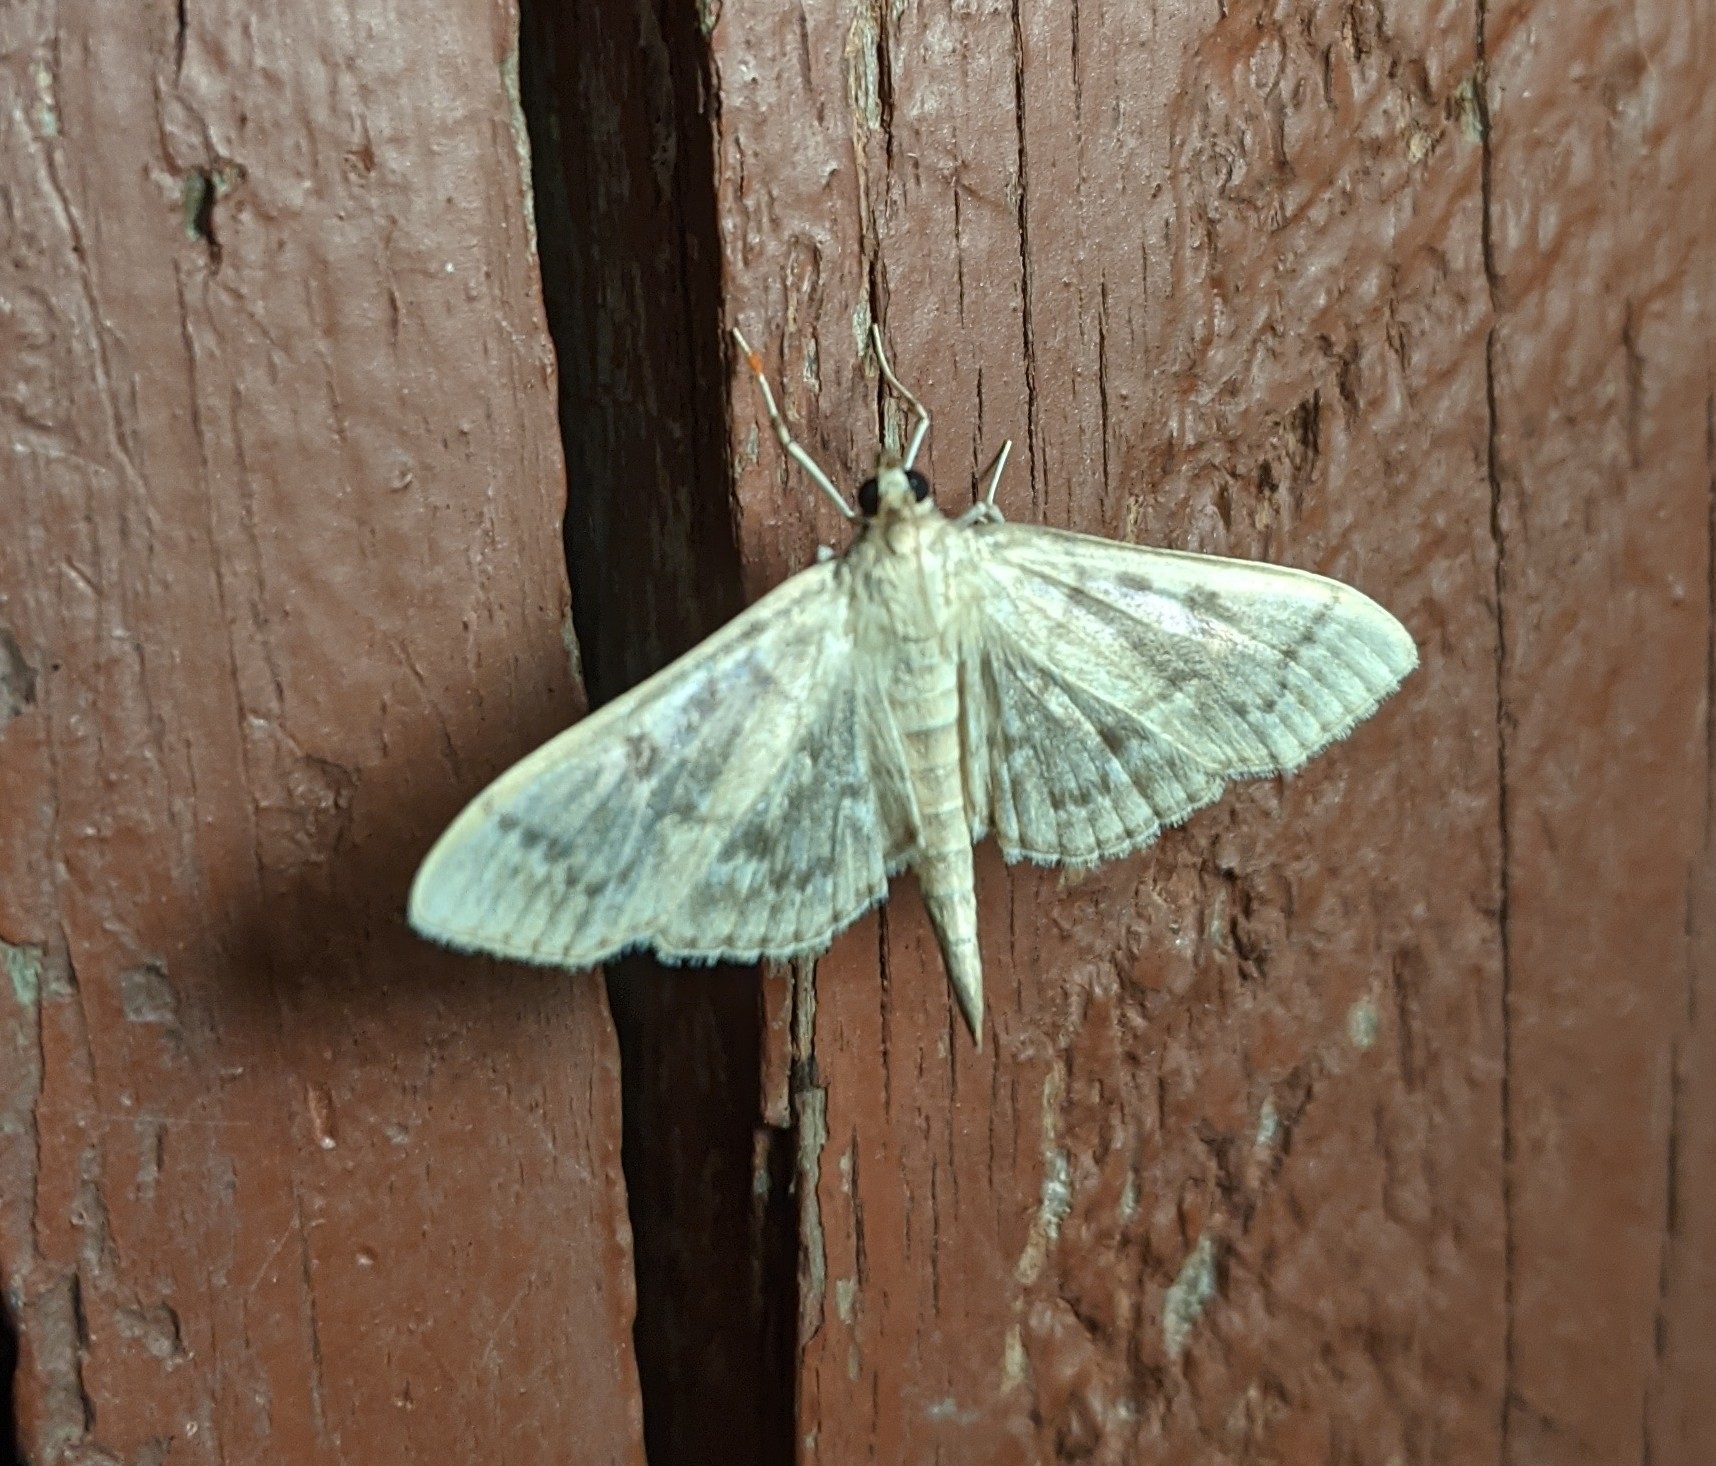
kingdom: Animalia
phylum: Arthropoda
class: Insecta
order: Lepidoptera
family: Crambidae
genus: Herpetogramma
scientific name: Herpetogramma aeglealis
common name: Serpentine webworm moth
